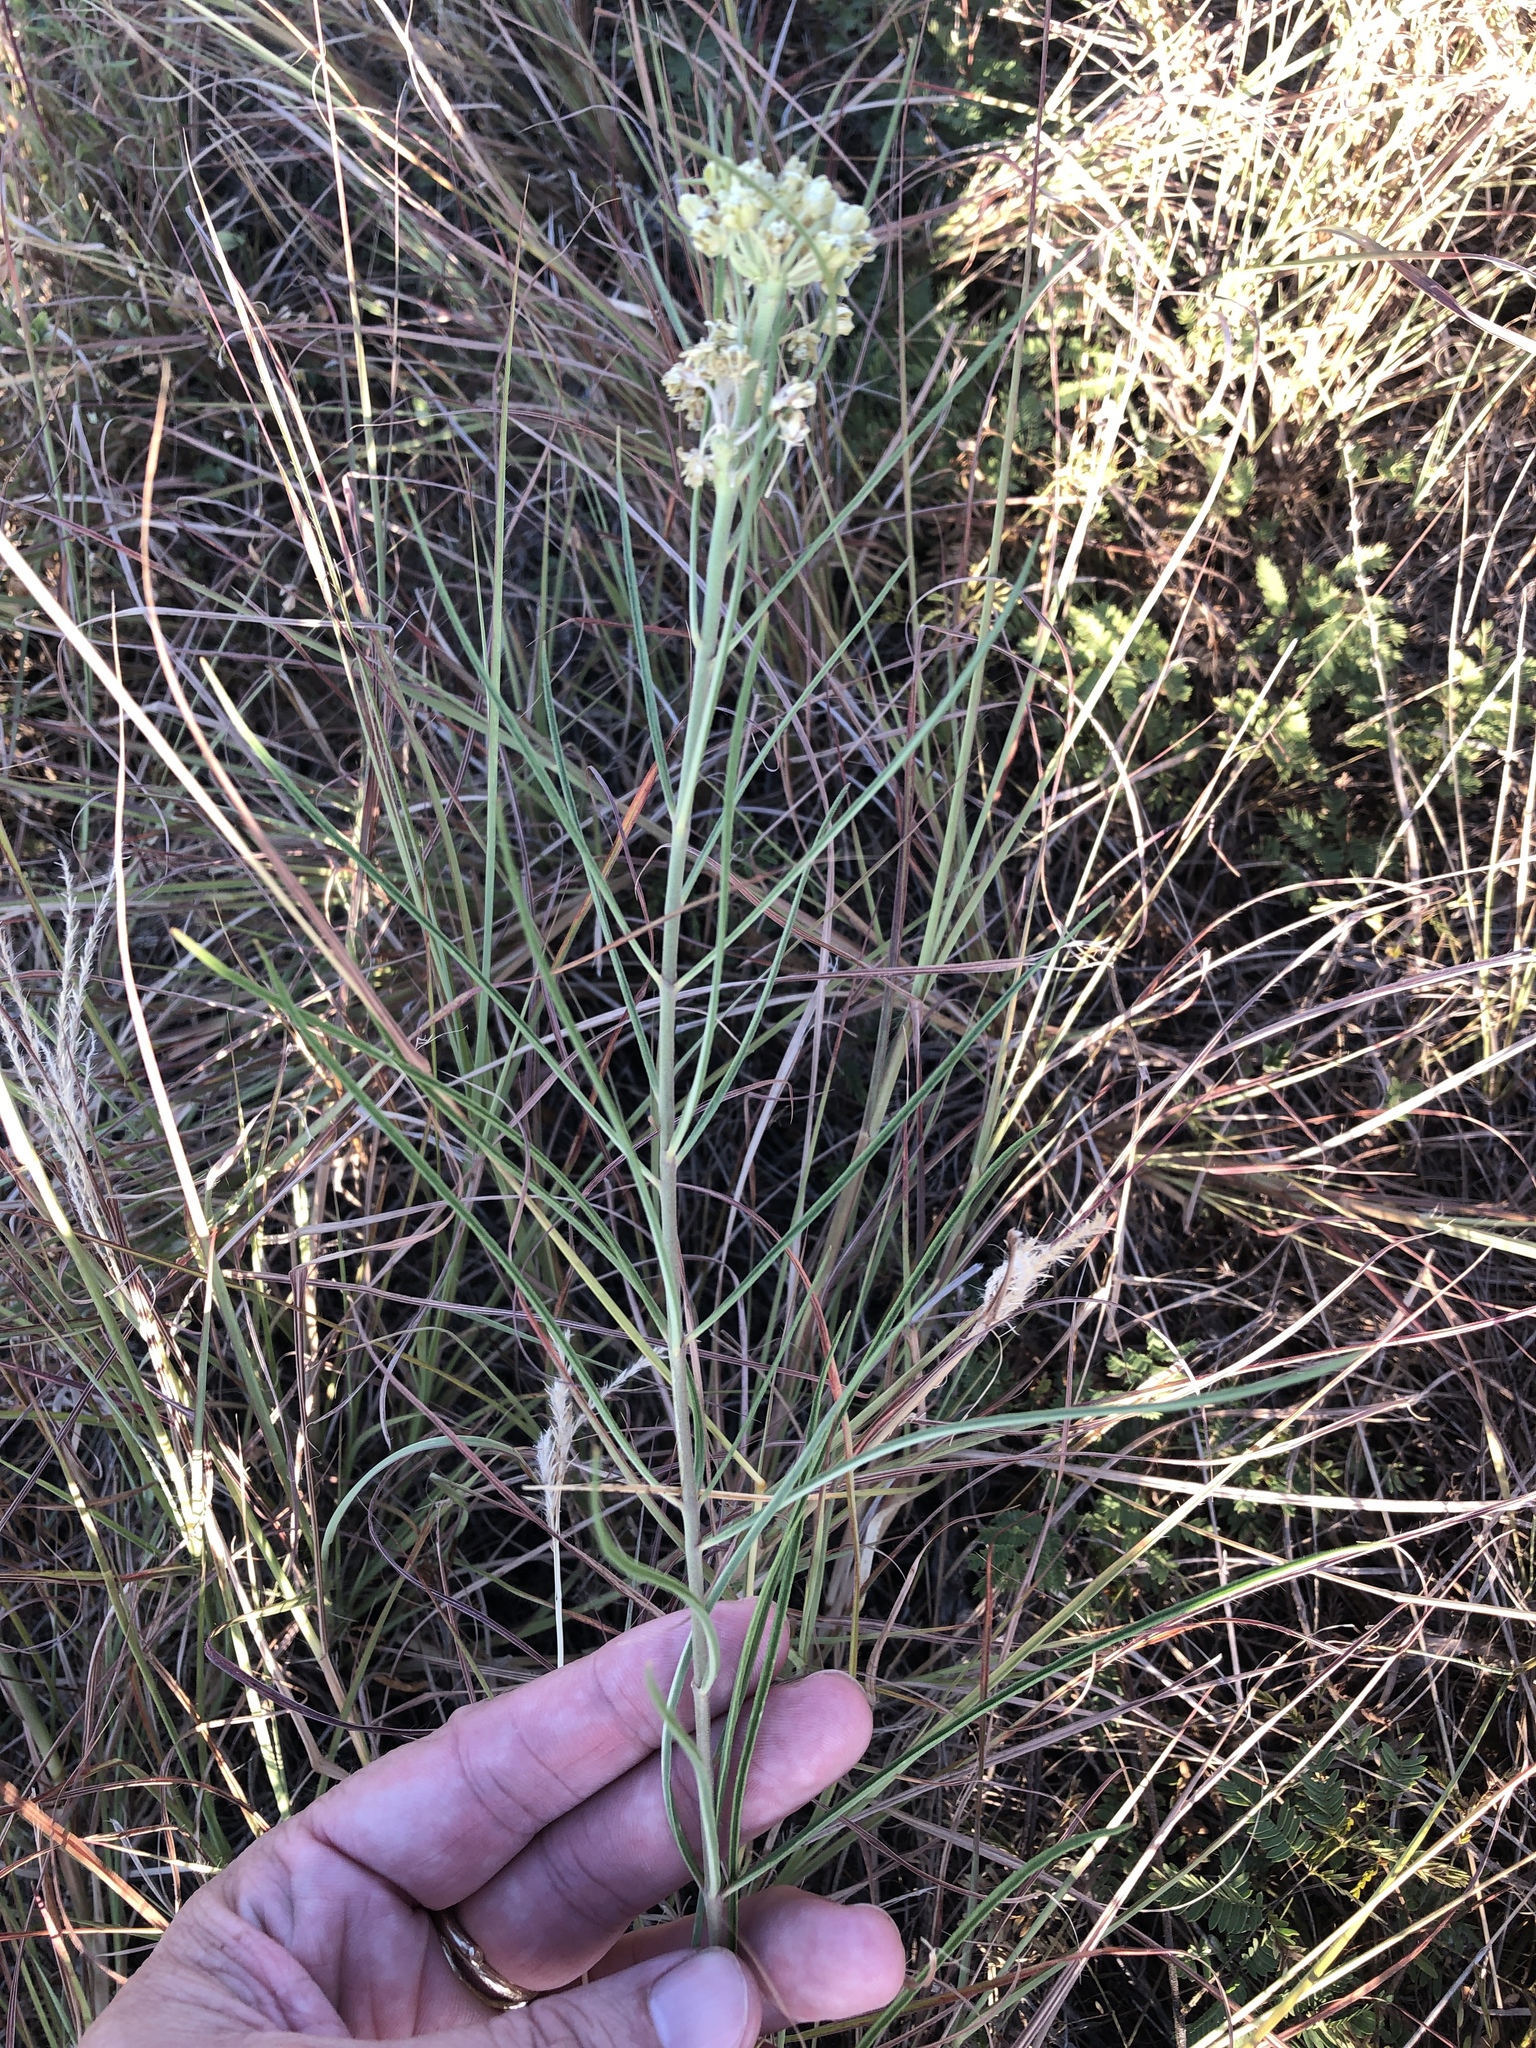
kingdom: Plantae
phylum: Tracheophyta
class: Magnoliopsida
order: Gentianales
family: Apocynaceae
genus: Asclepias
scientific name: Asclepias stenophylla
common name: Narrow-leaf milkweed
